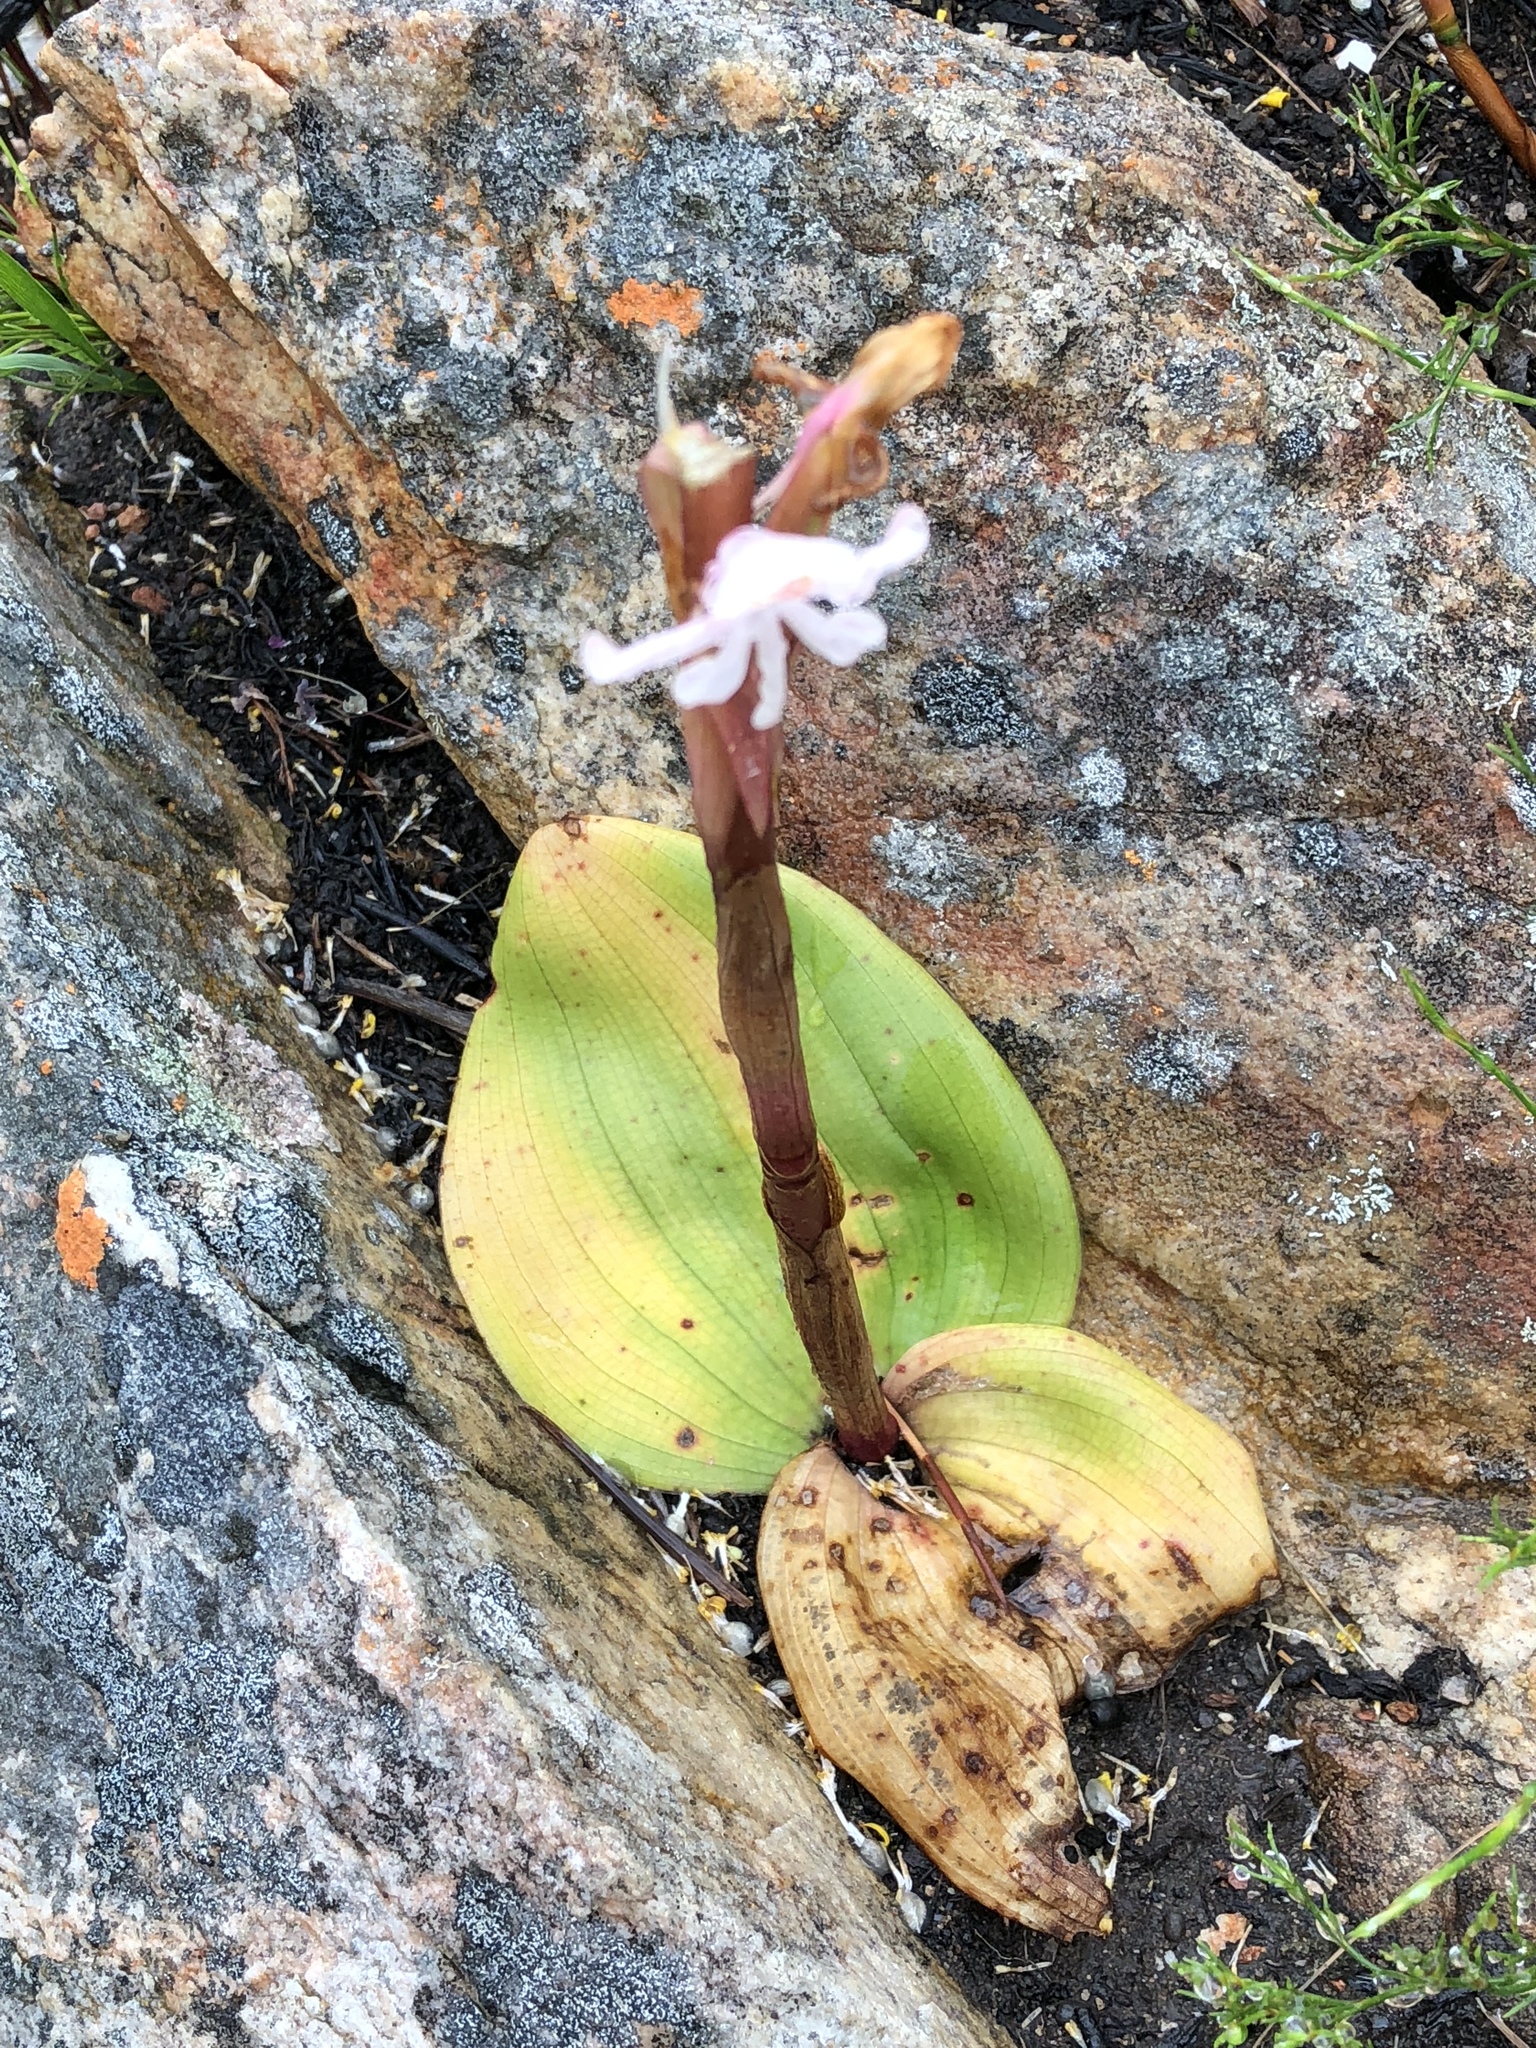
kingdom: Plantae
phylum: Tracheophyta
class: Liliopsida
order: Asparagales
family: Orchidaceae
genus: Satyrium
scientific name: Satyrium pallens
